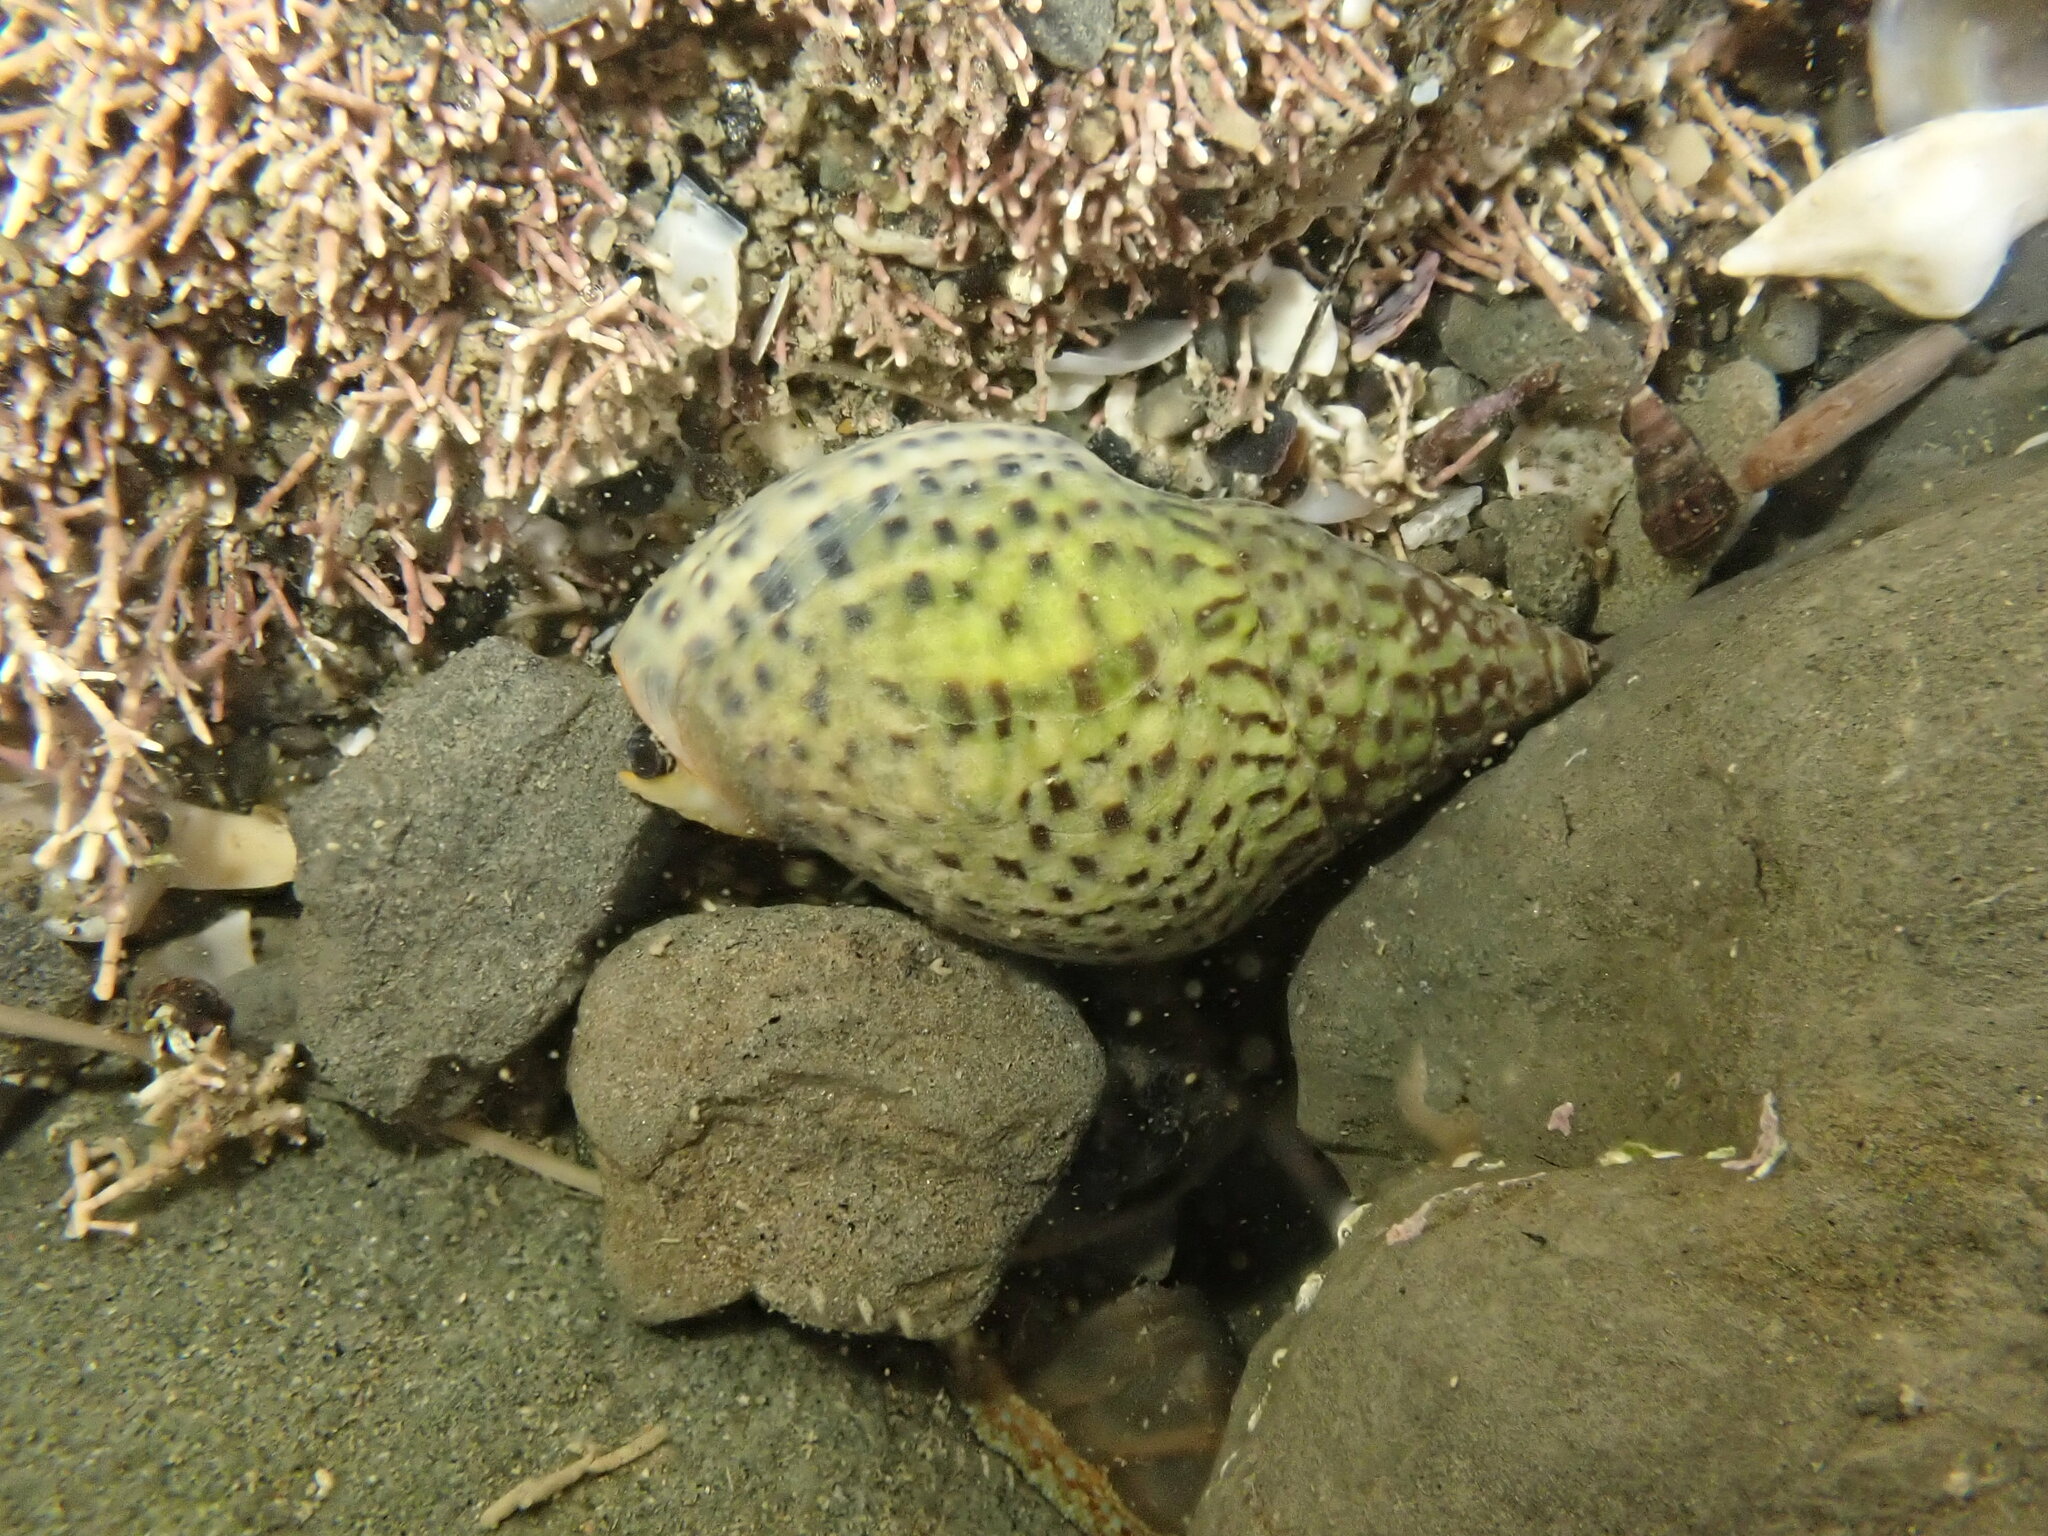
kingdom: Animalia
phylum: Mollusca
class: Gastropoda
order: Neogastropoda
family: Cominellidae
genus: Cominella
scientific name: Cominella maculosa
